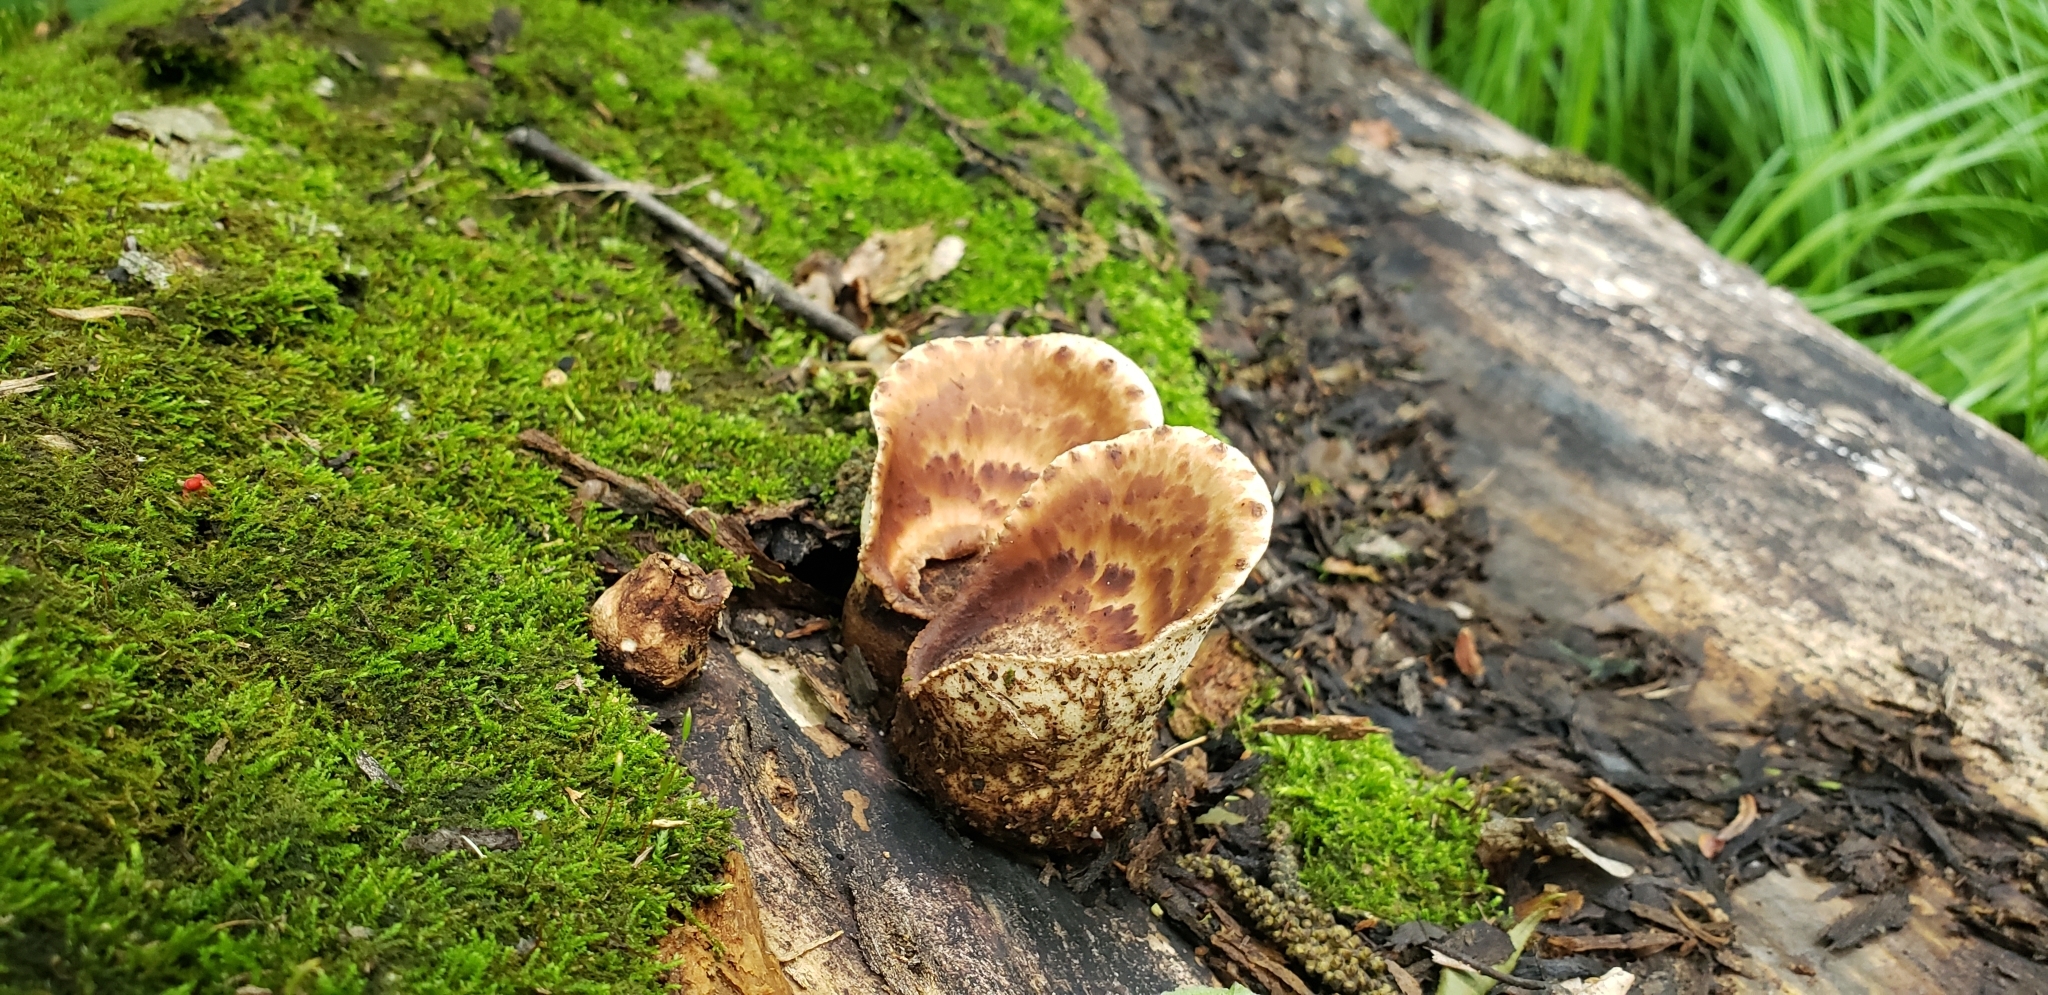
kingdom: Fungi
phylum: Basidiomycota
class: Agaricomycetes
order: Polyporales
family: Polyporaceae
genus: Cerioporus
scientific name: Cerioporus squamosus
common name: Dryad's saddle
